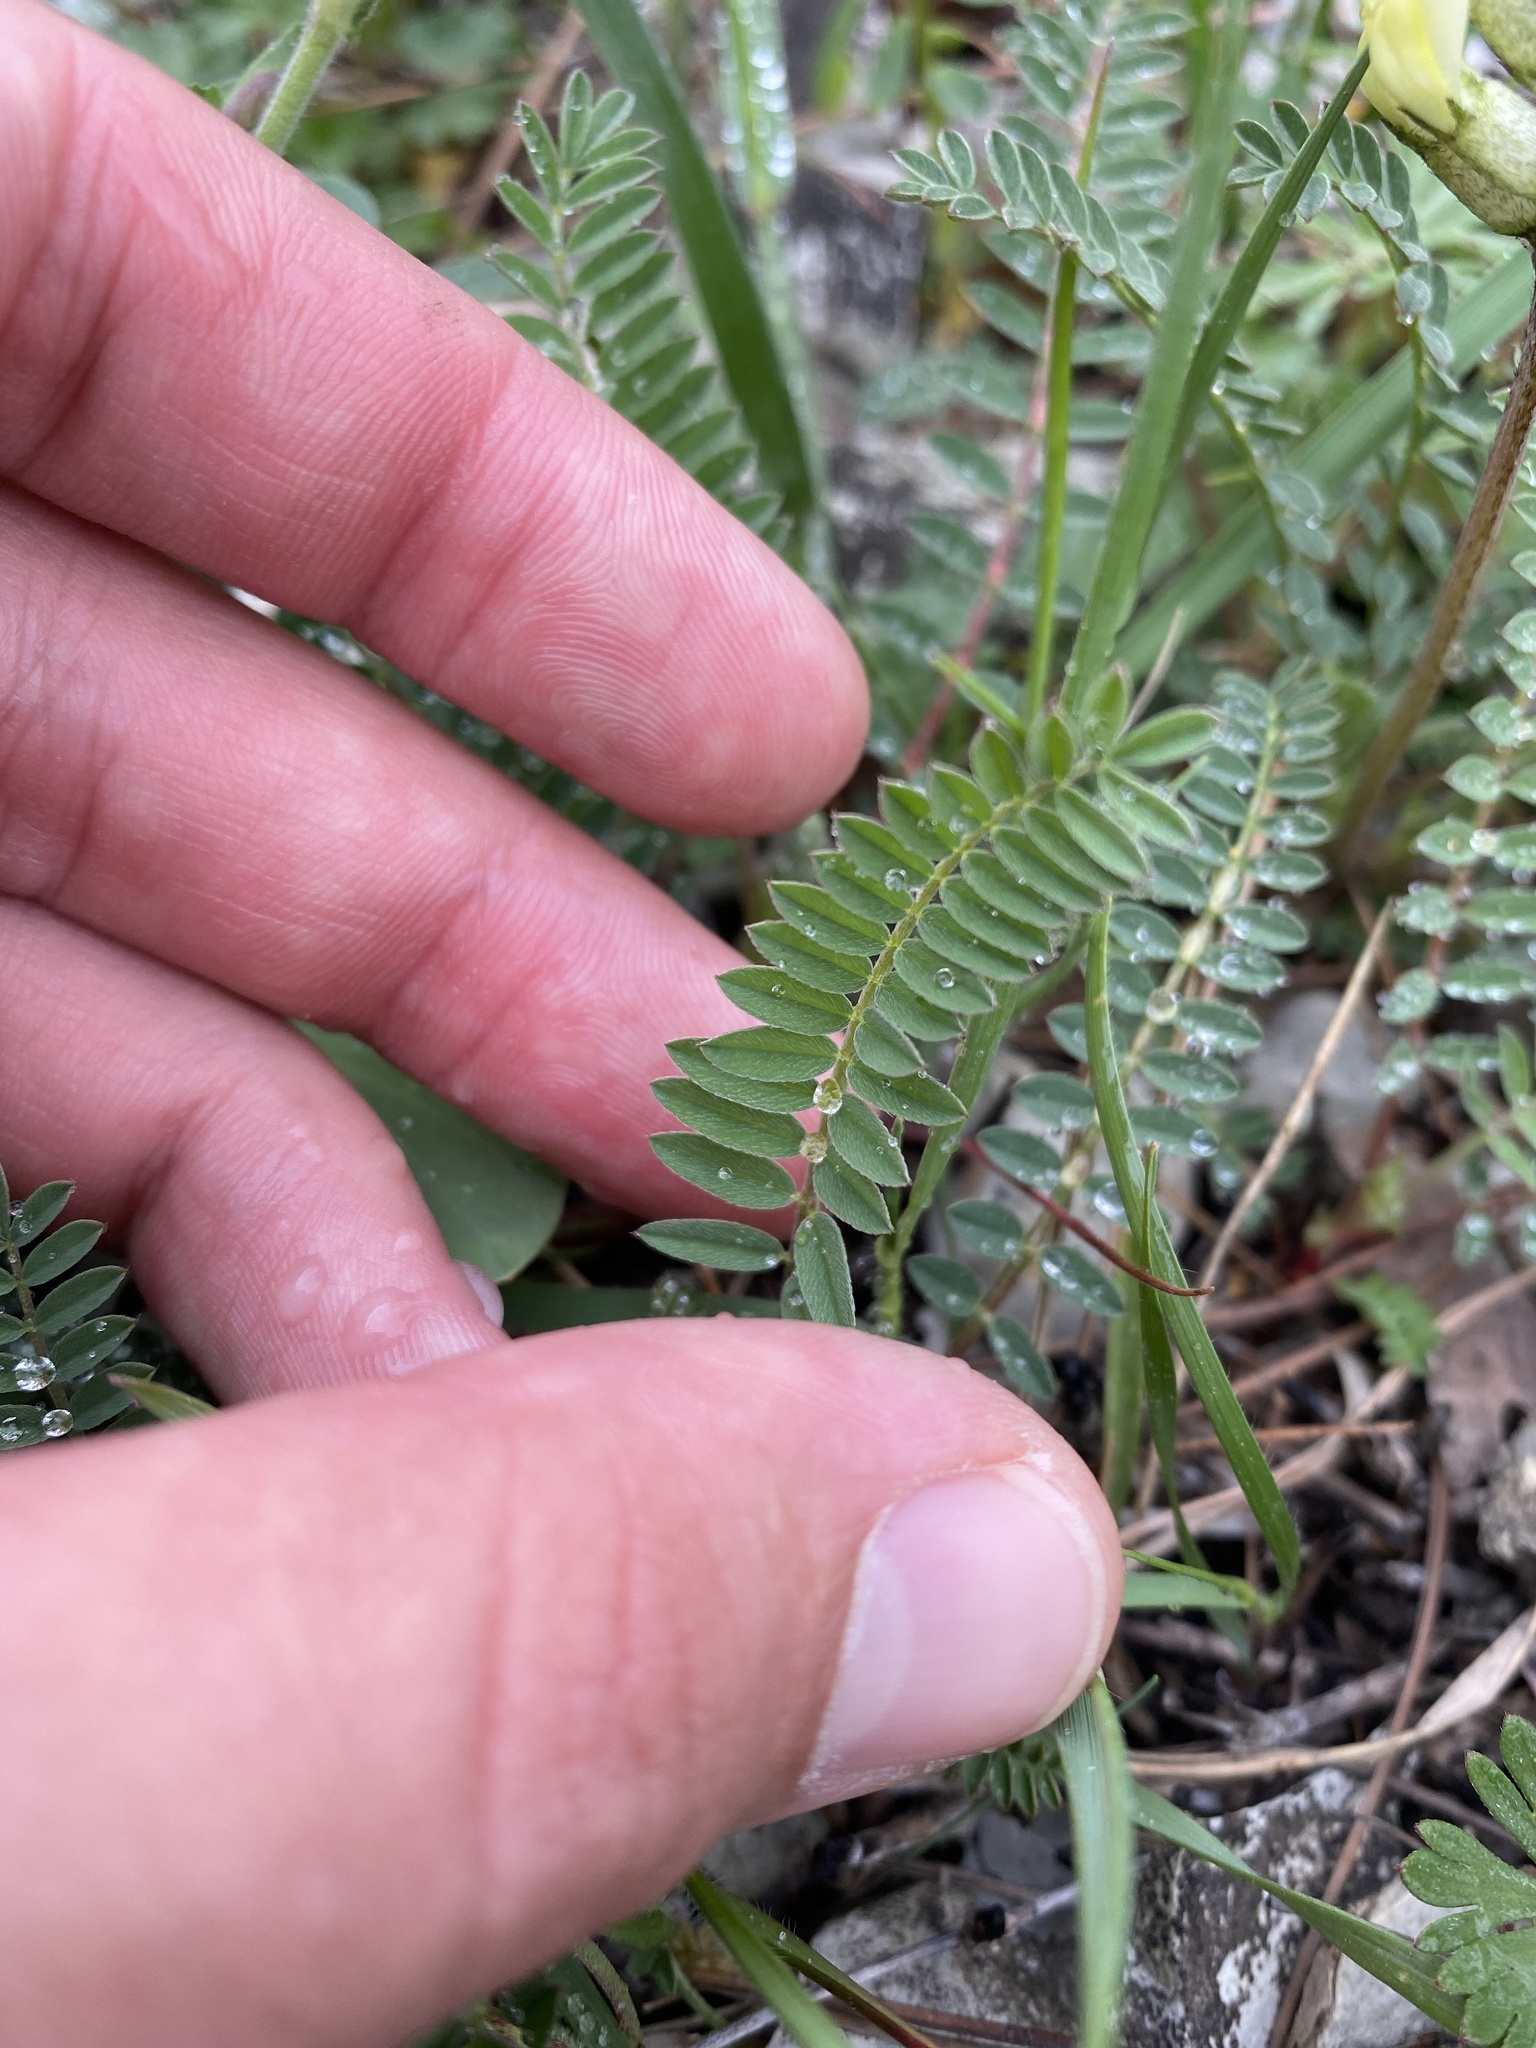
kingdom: Plantae
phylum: Tracheophyta
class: Magnoliopsida
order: Fabales
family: Fabaceae
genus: Astragalus
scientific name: Astragalus fragrans
